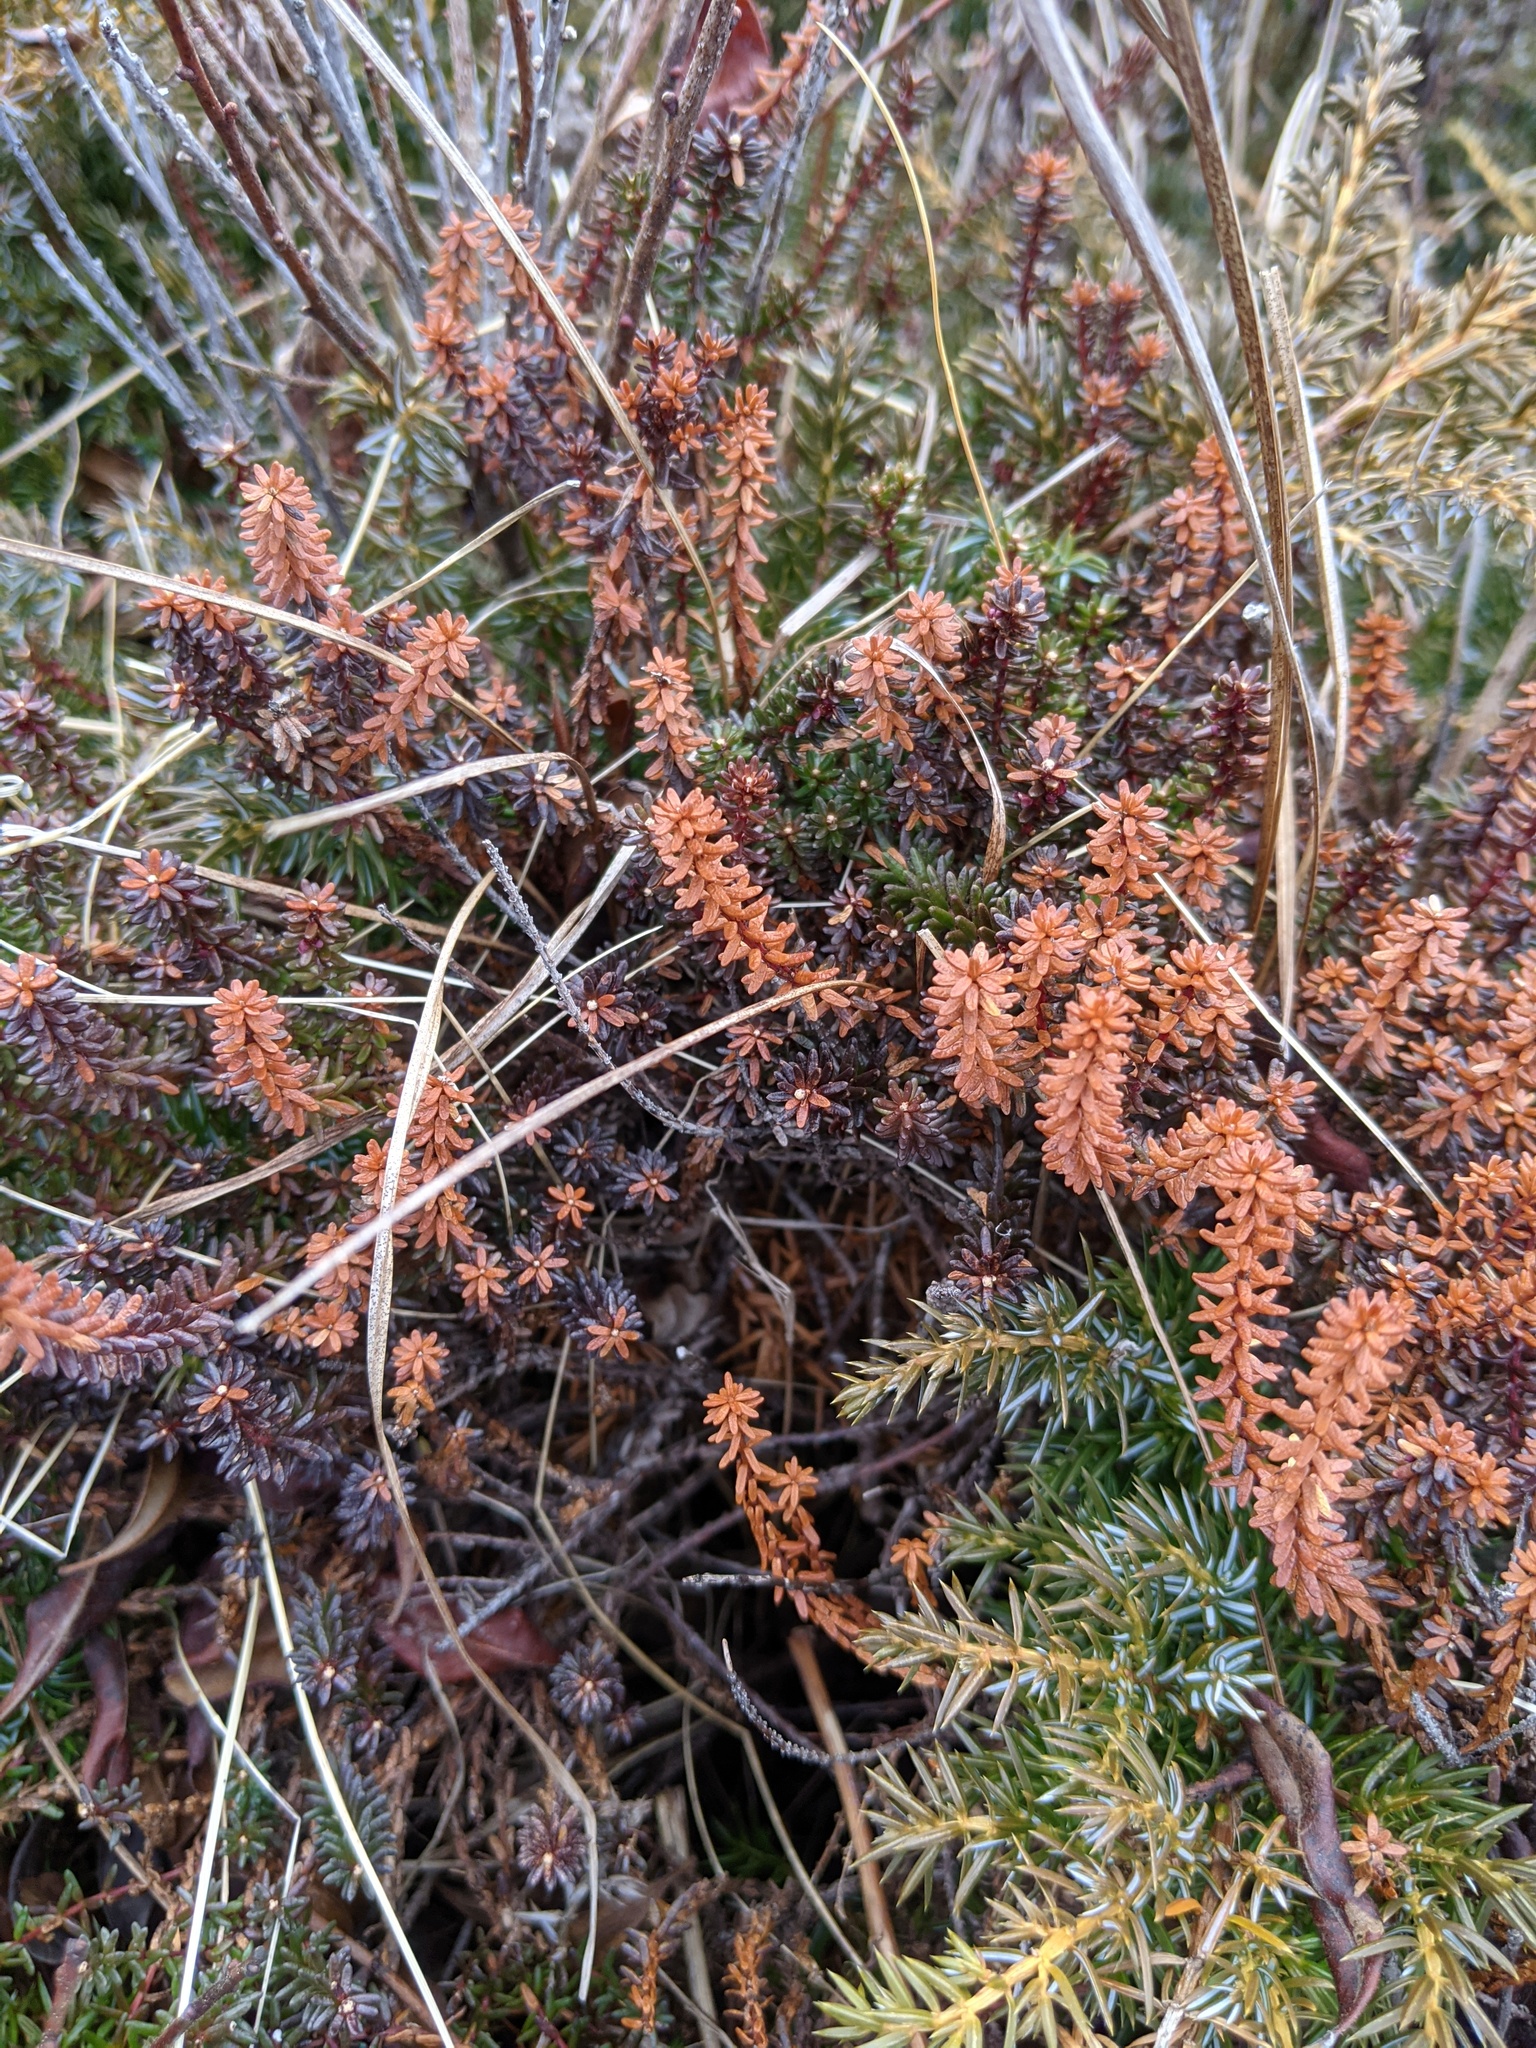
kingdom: Plantae
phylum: Tracheophyta
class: Magnoliopsida
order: Ericales
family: Ericaceae
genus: Empetrum
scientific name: Empetrum nigrum
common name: Black crowberry
